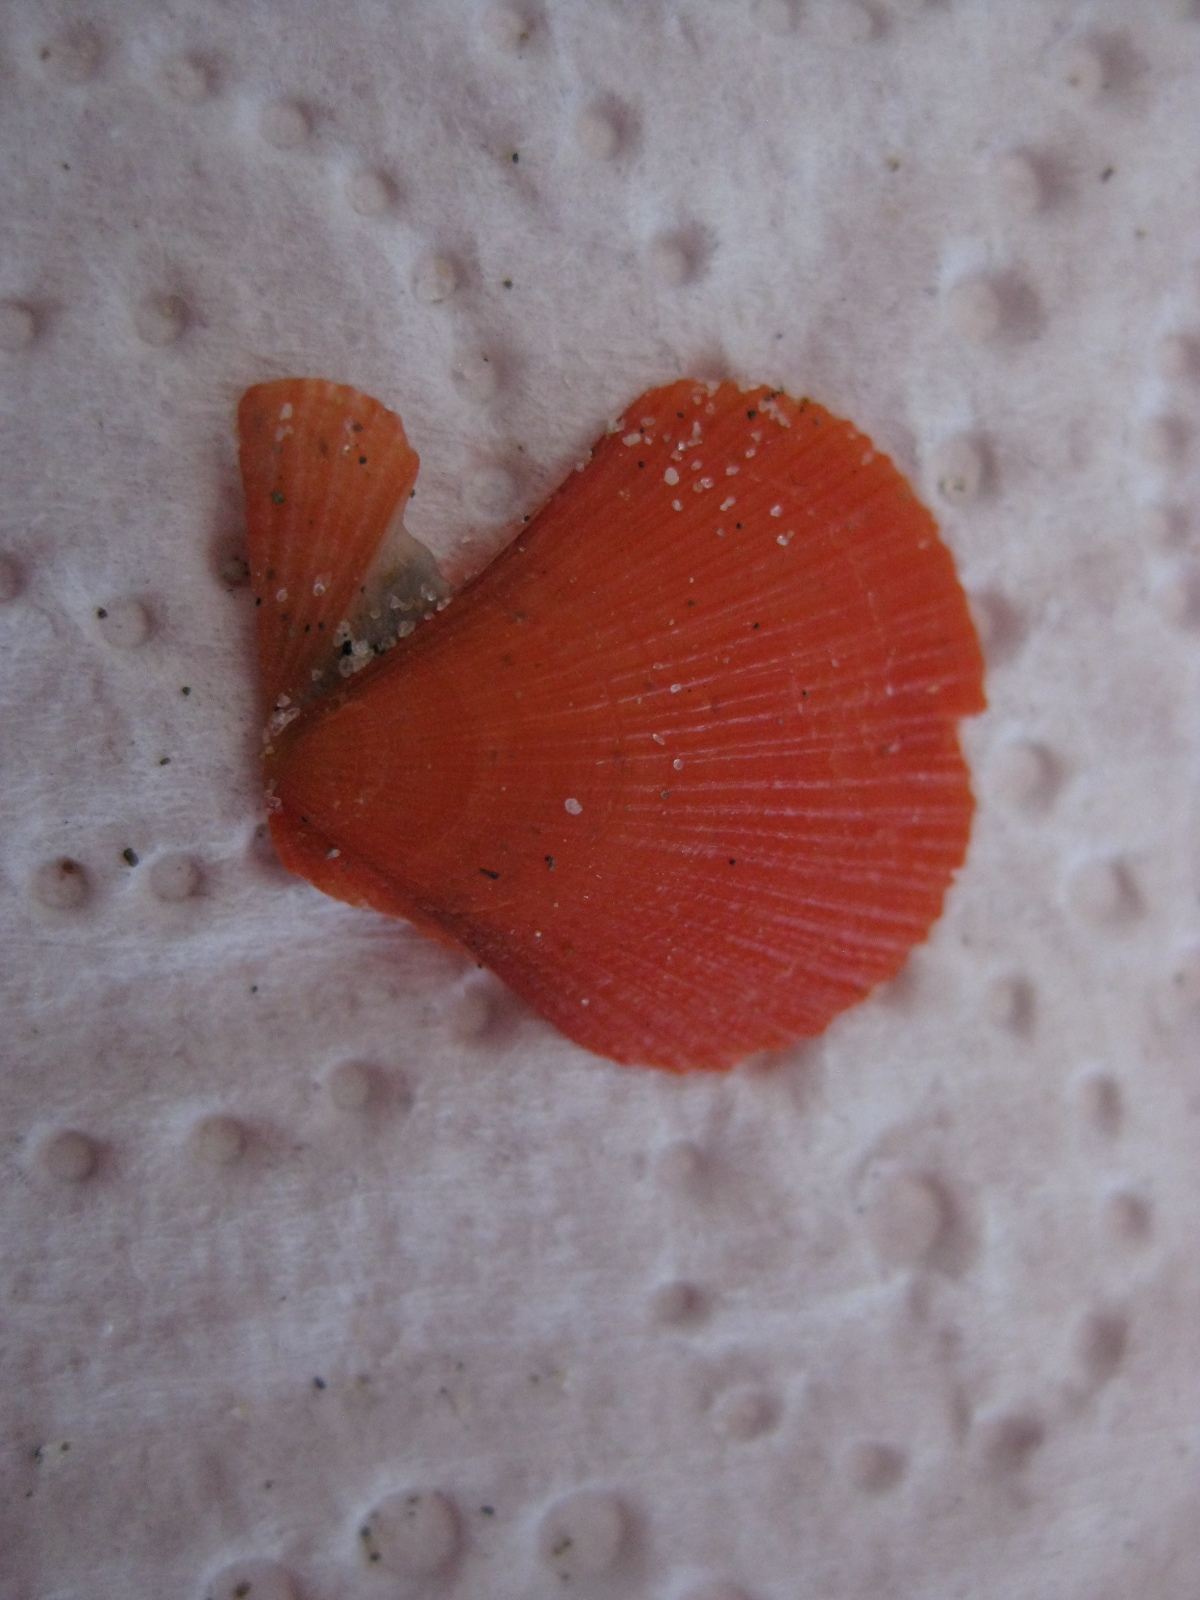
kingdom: Animalia
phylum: Mollusca
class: Bivalvia
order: Pectinida
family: Pectinidae
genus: Talochlamys
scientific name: Talochlamys zelandiae
